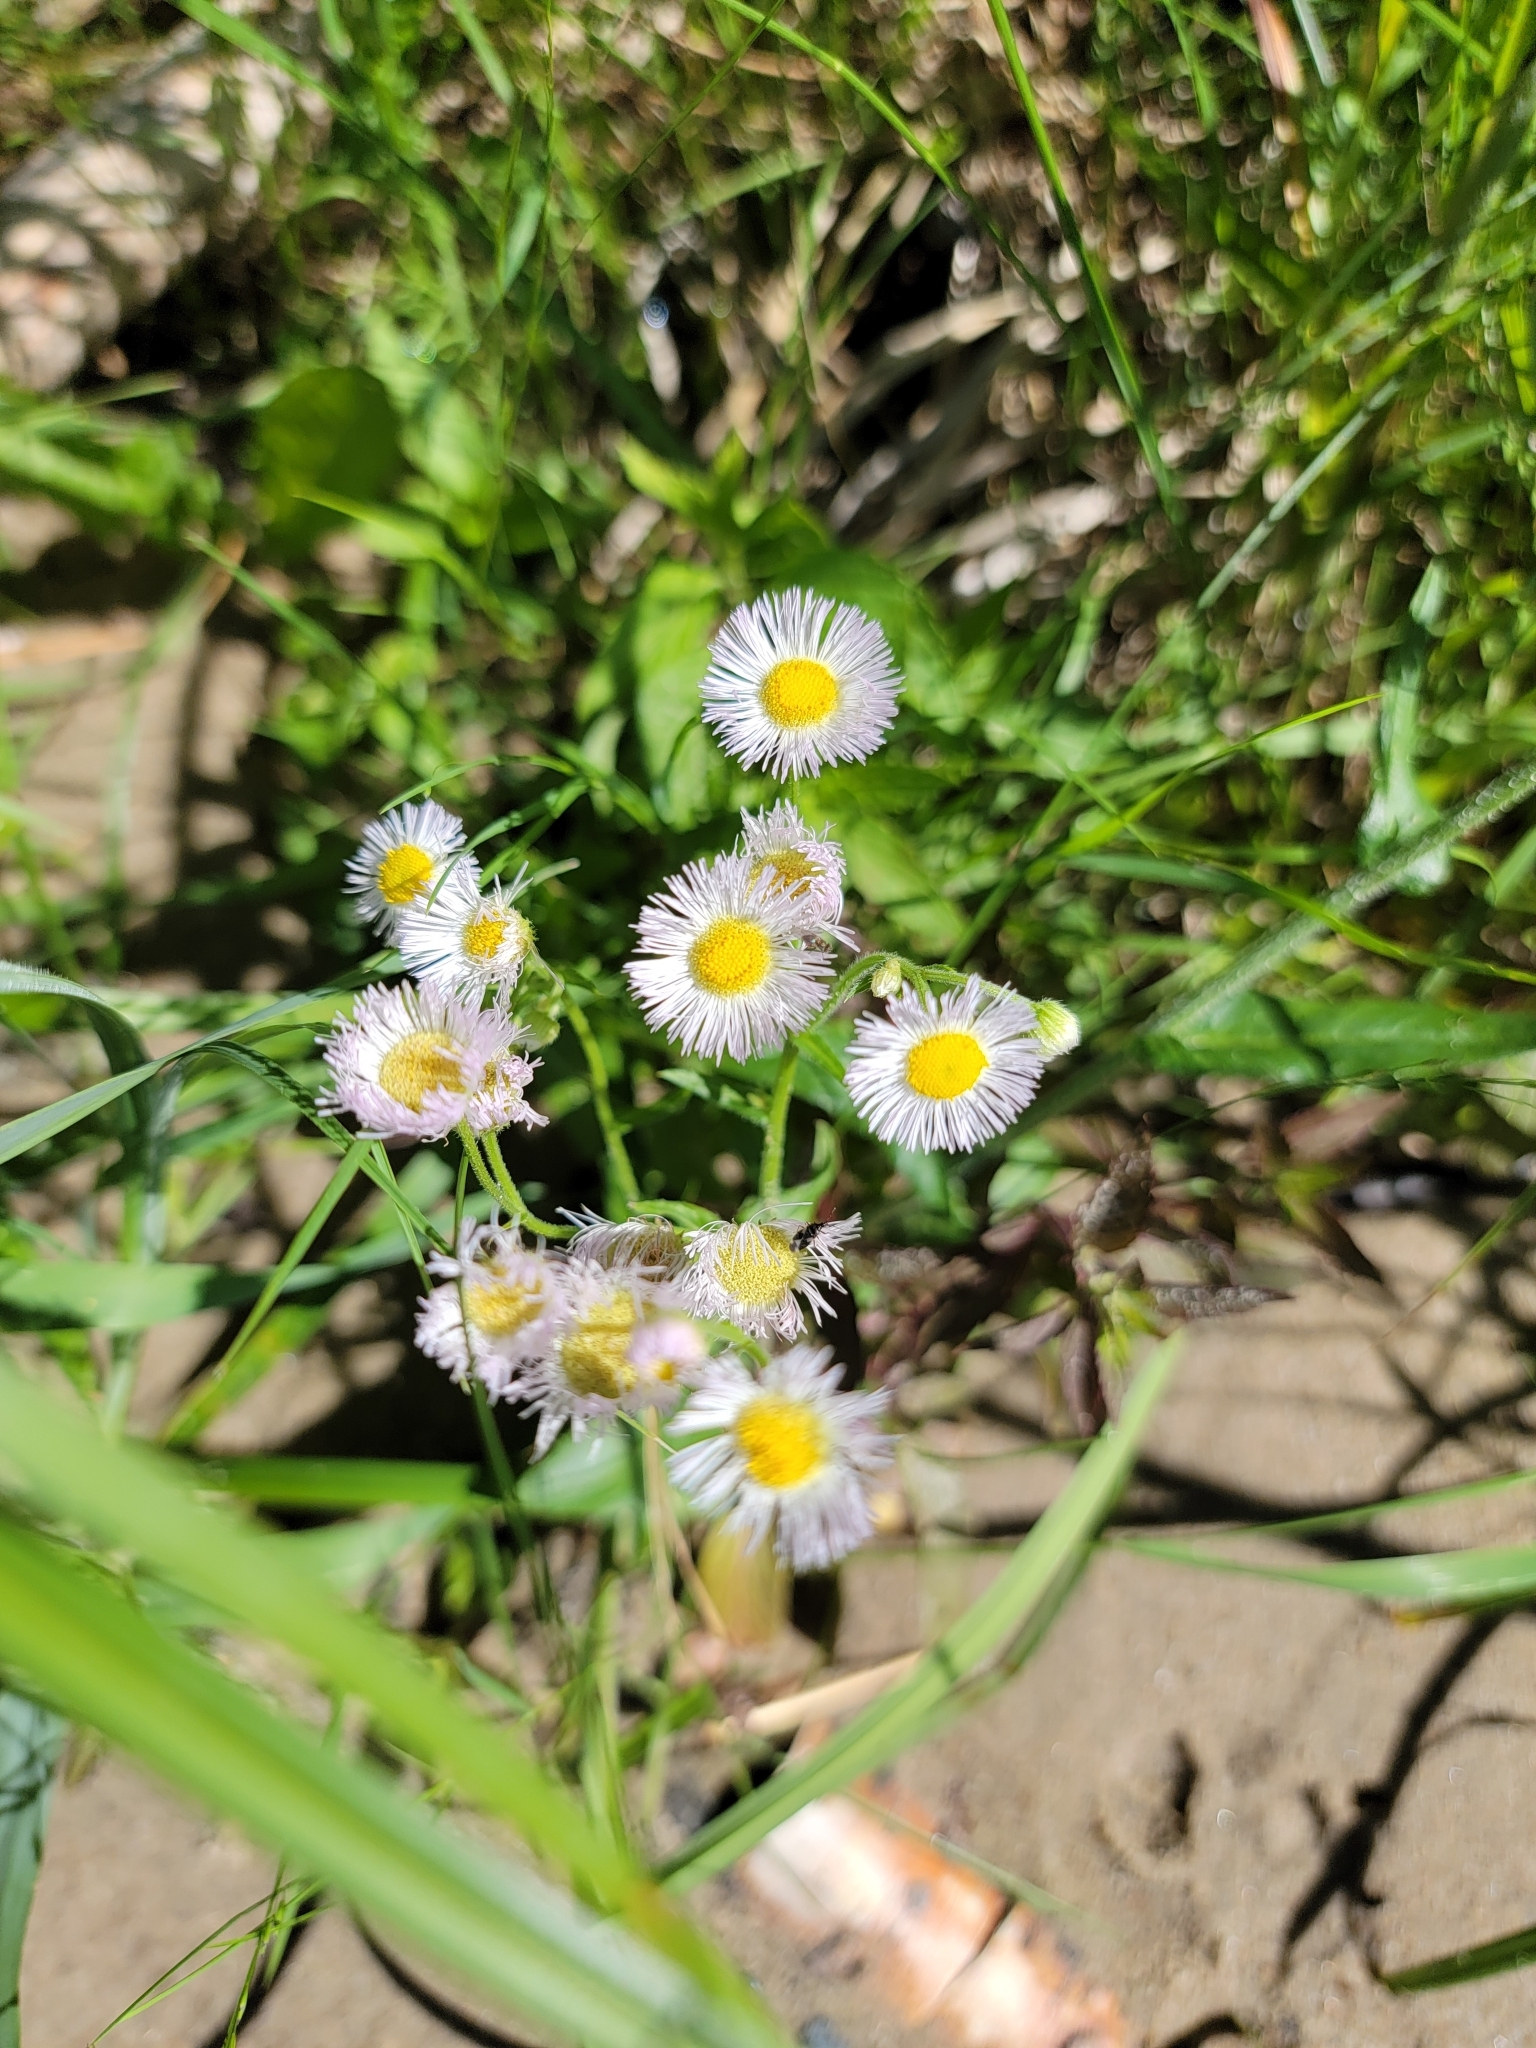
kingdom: Plantae
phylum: Tracheophyta
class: Magnoliopsida
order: Asterales
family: Asteraceae
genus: Erigeron
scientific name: Erigeron philadelphicus
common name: Robin's-plantain
